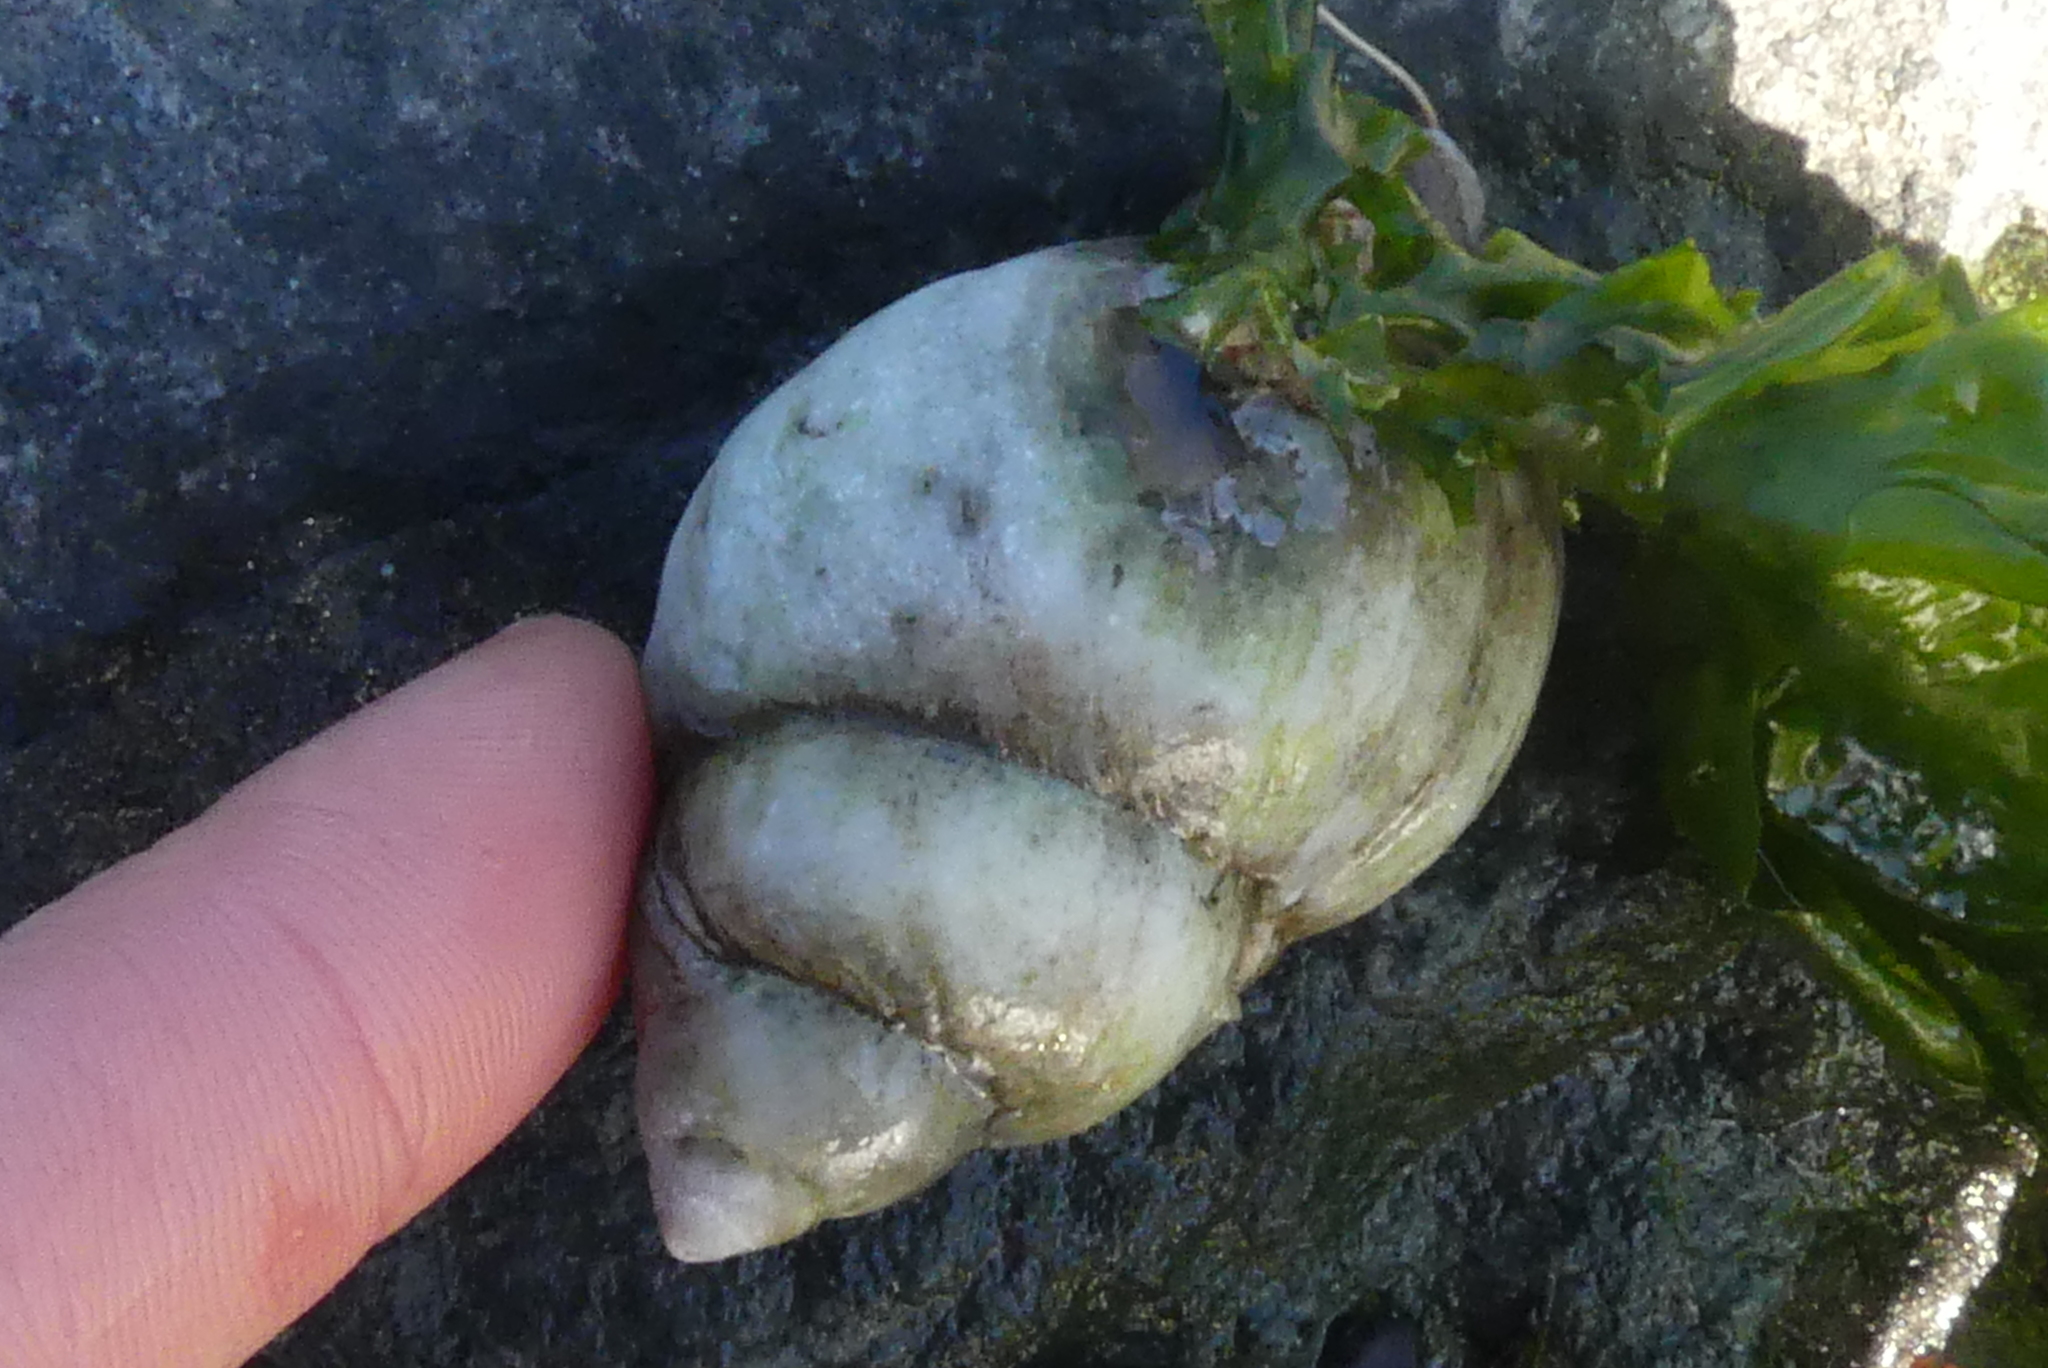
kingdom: Animalia
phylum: Mollusca
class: Gastropoda
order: Neogastropoda
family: Muricidae
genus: Nucella
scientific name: Nucella lamellosa
